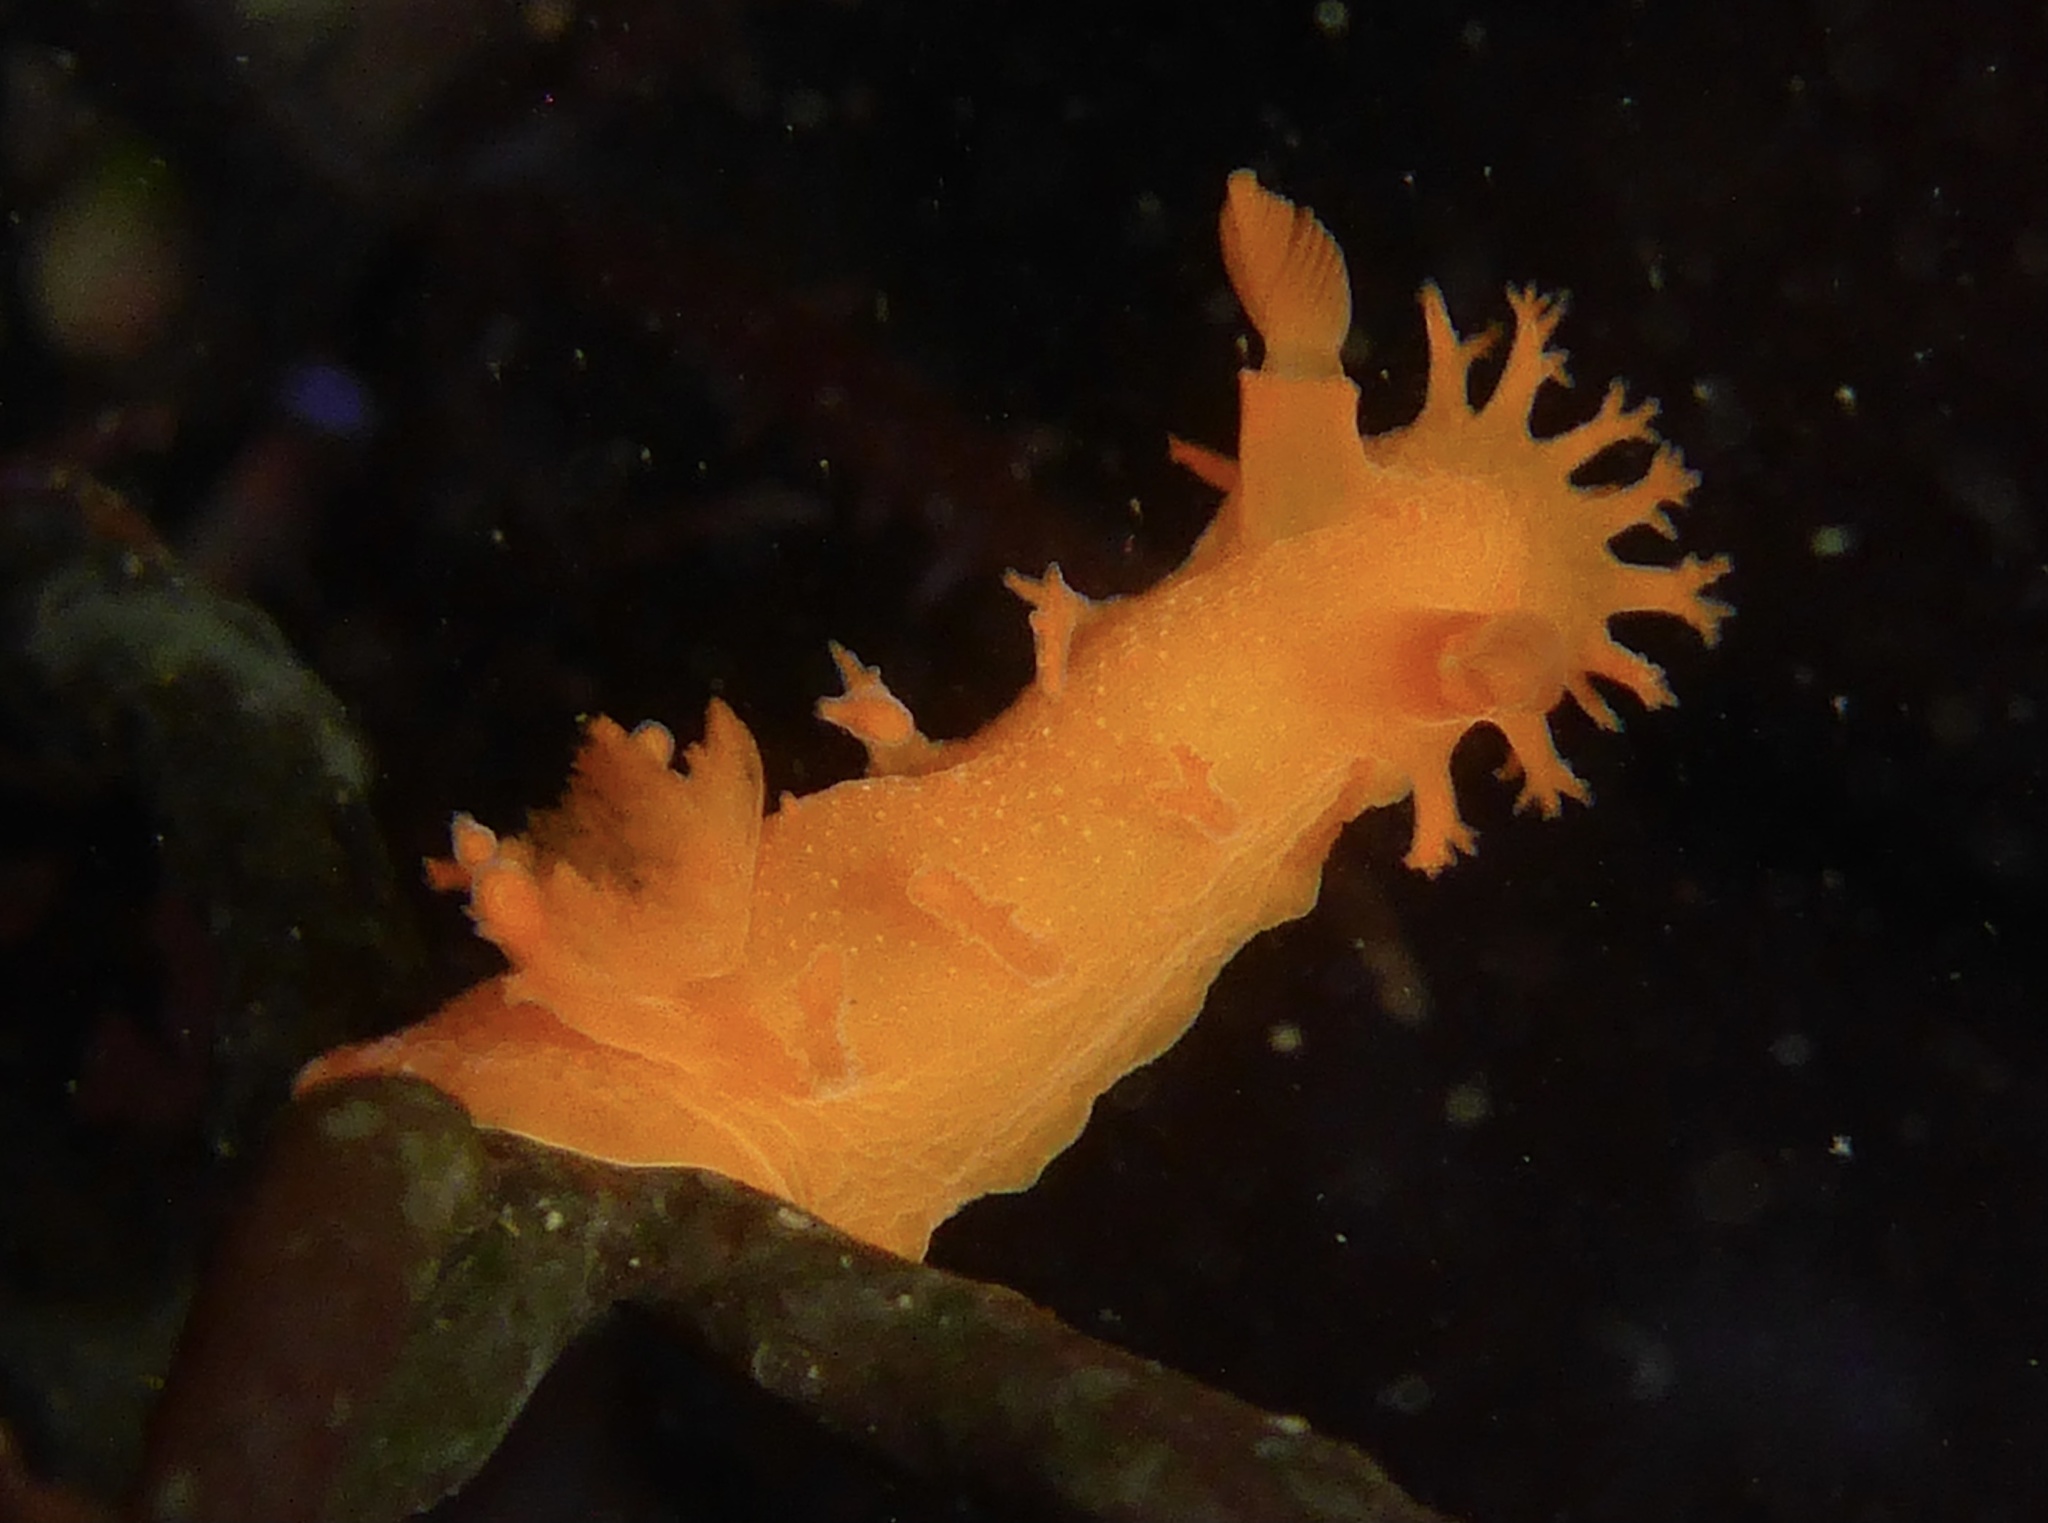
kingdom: Animalia
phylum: Mollusca
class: Gastropoda
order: Nudibranchia
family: Polyceridae
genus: Triopha
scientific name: Triopha maculata
